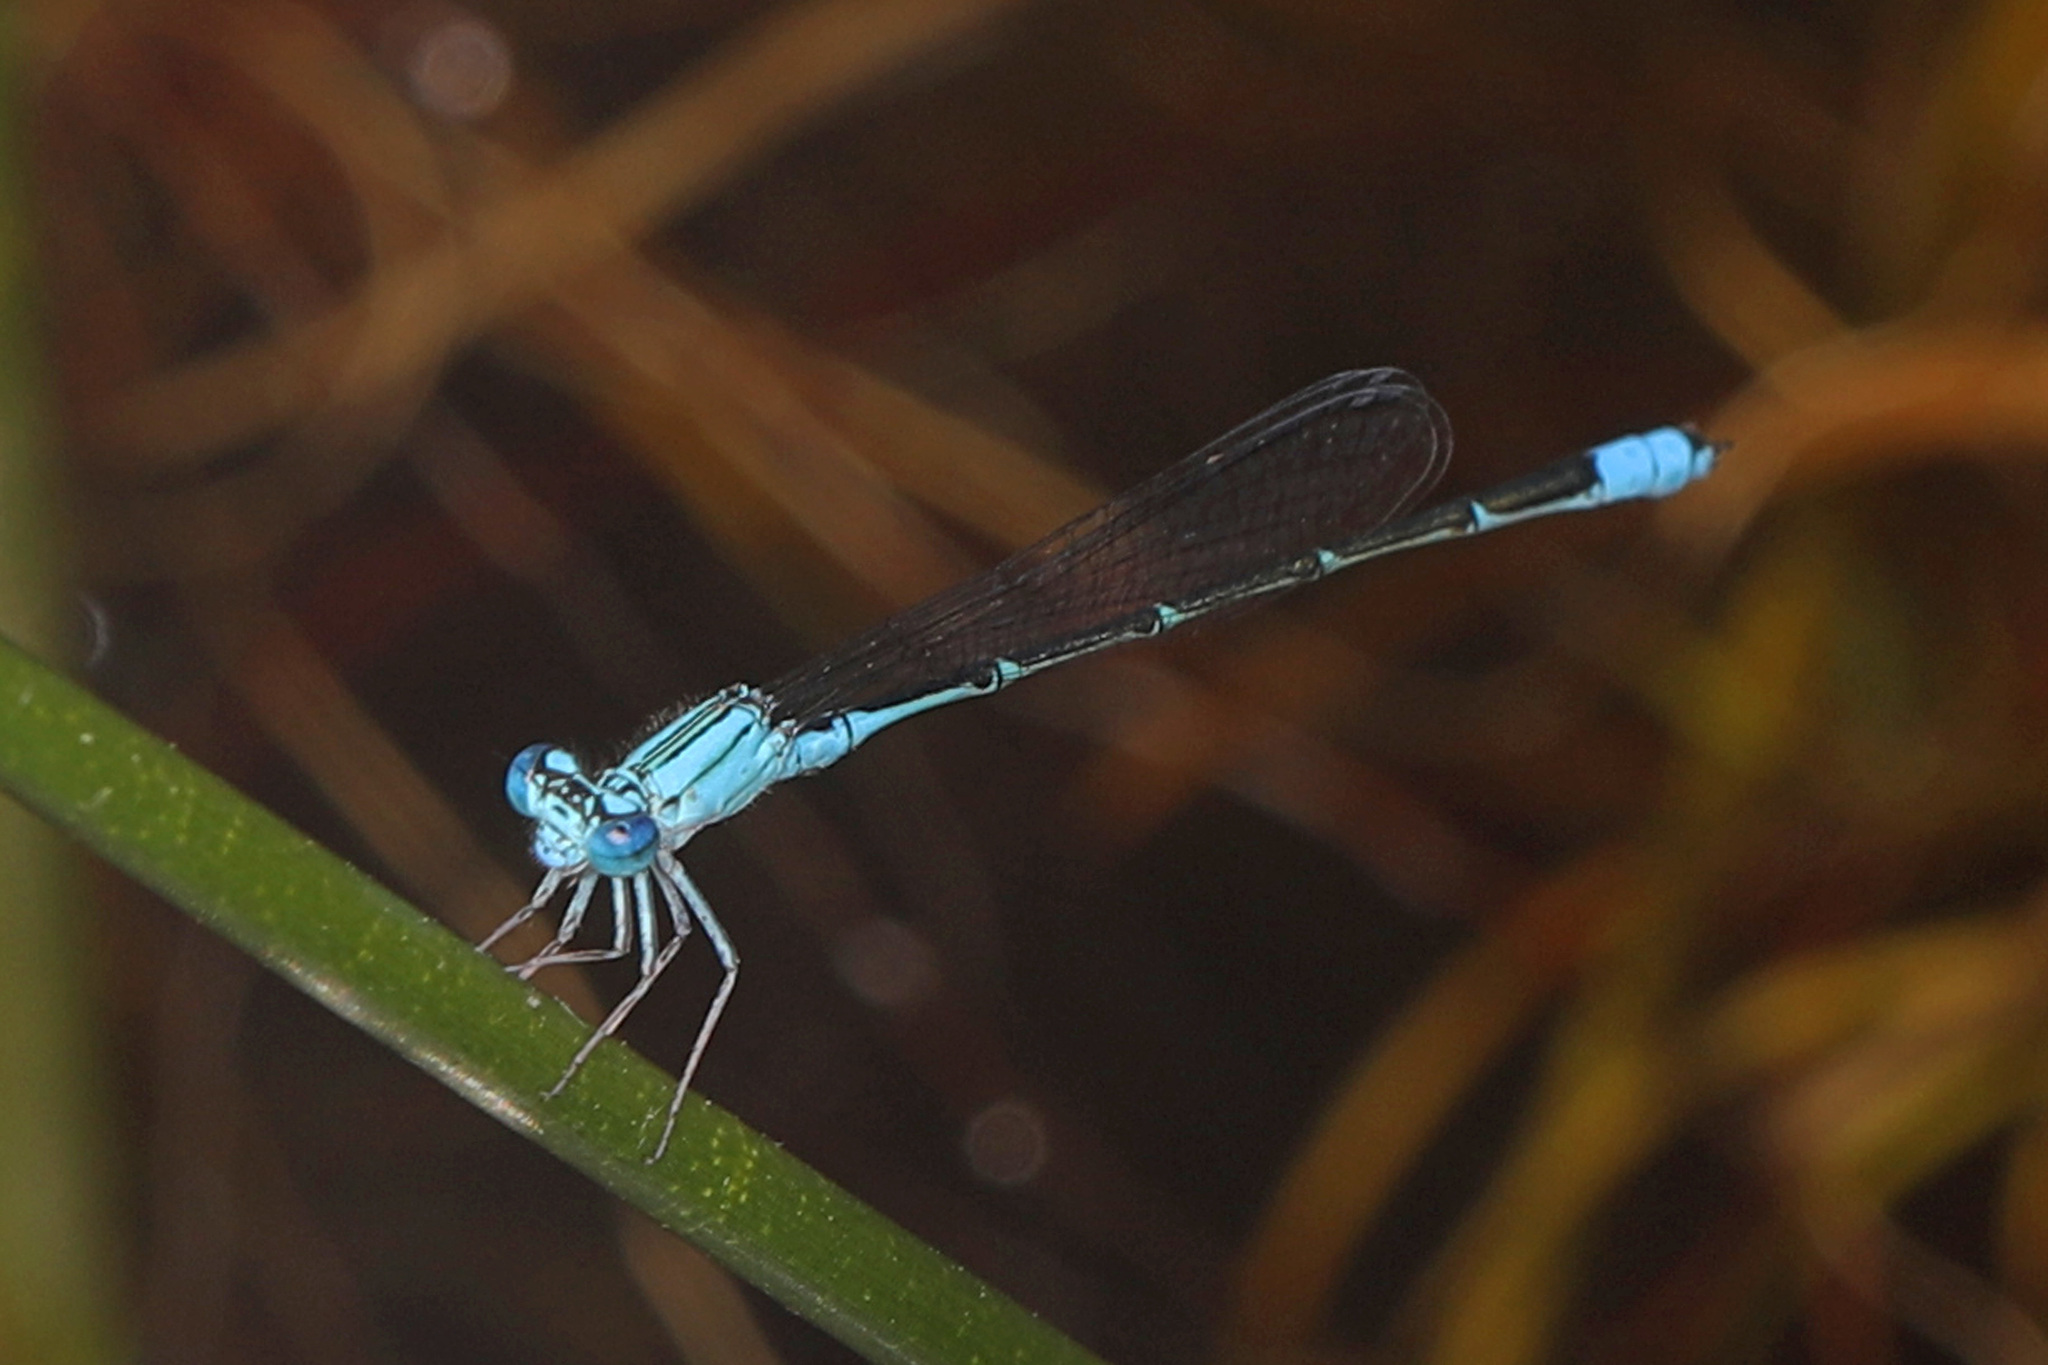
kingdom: Animalia
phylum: Arthropoda
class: Insecta
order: Odonata
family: Coenagrionidae
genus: Enallagma
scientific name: Enallagma traviatum
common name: Slender bluet
